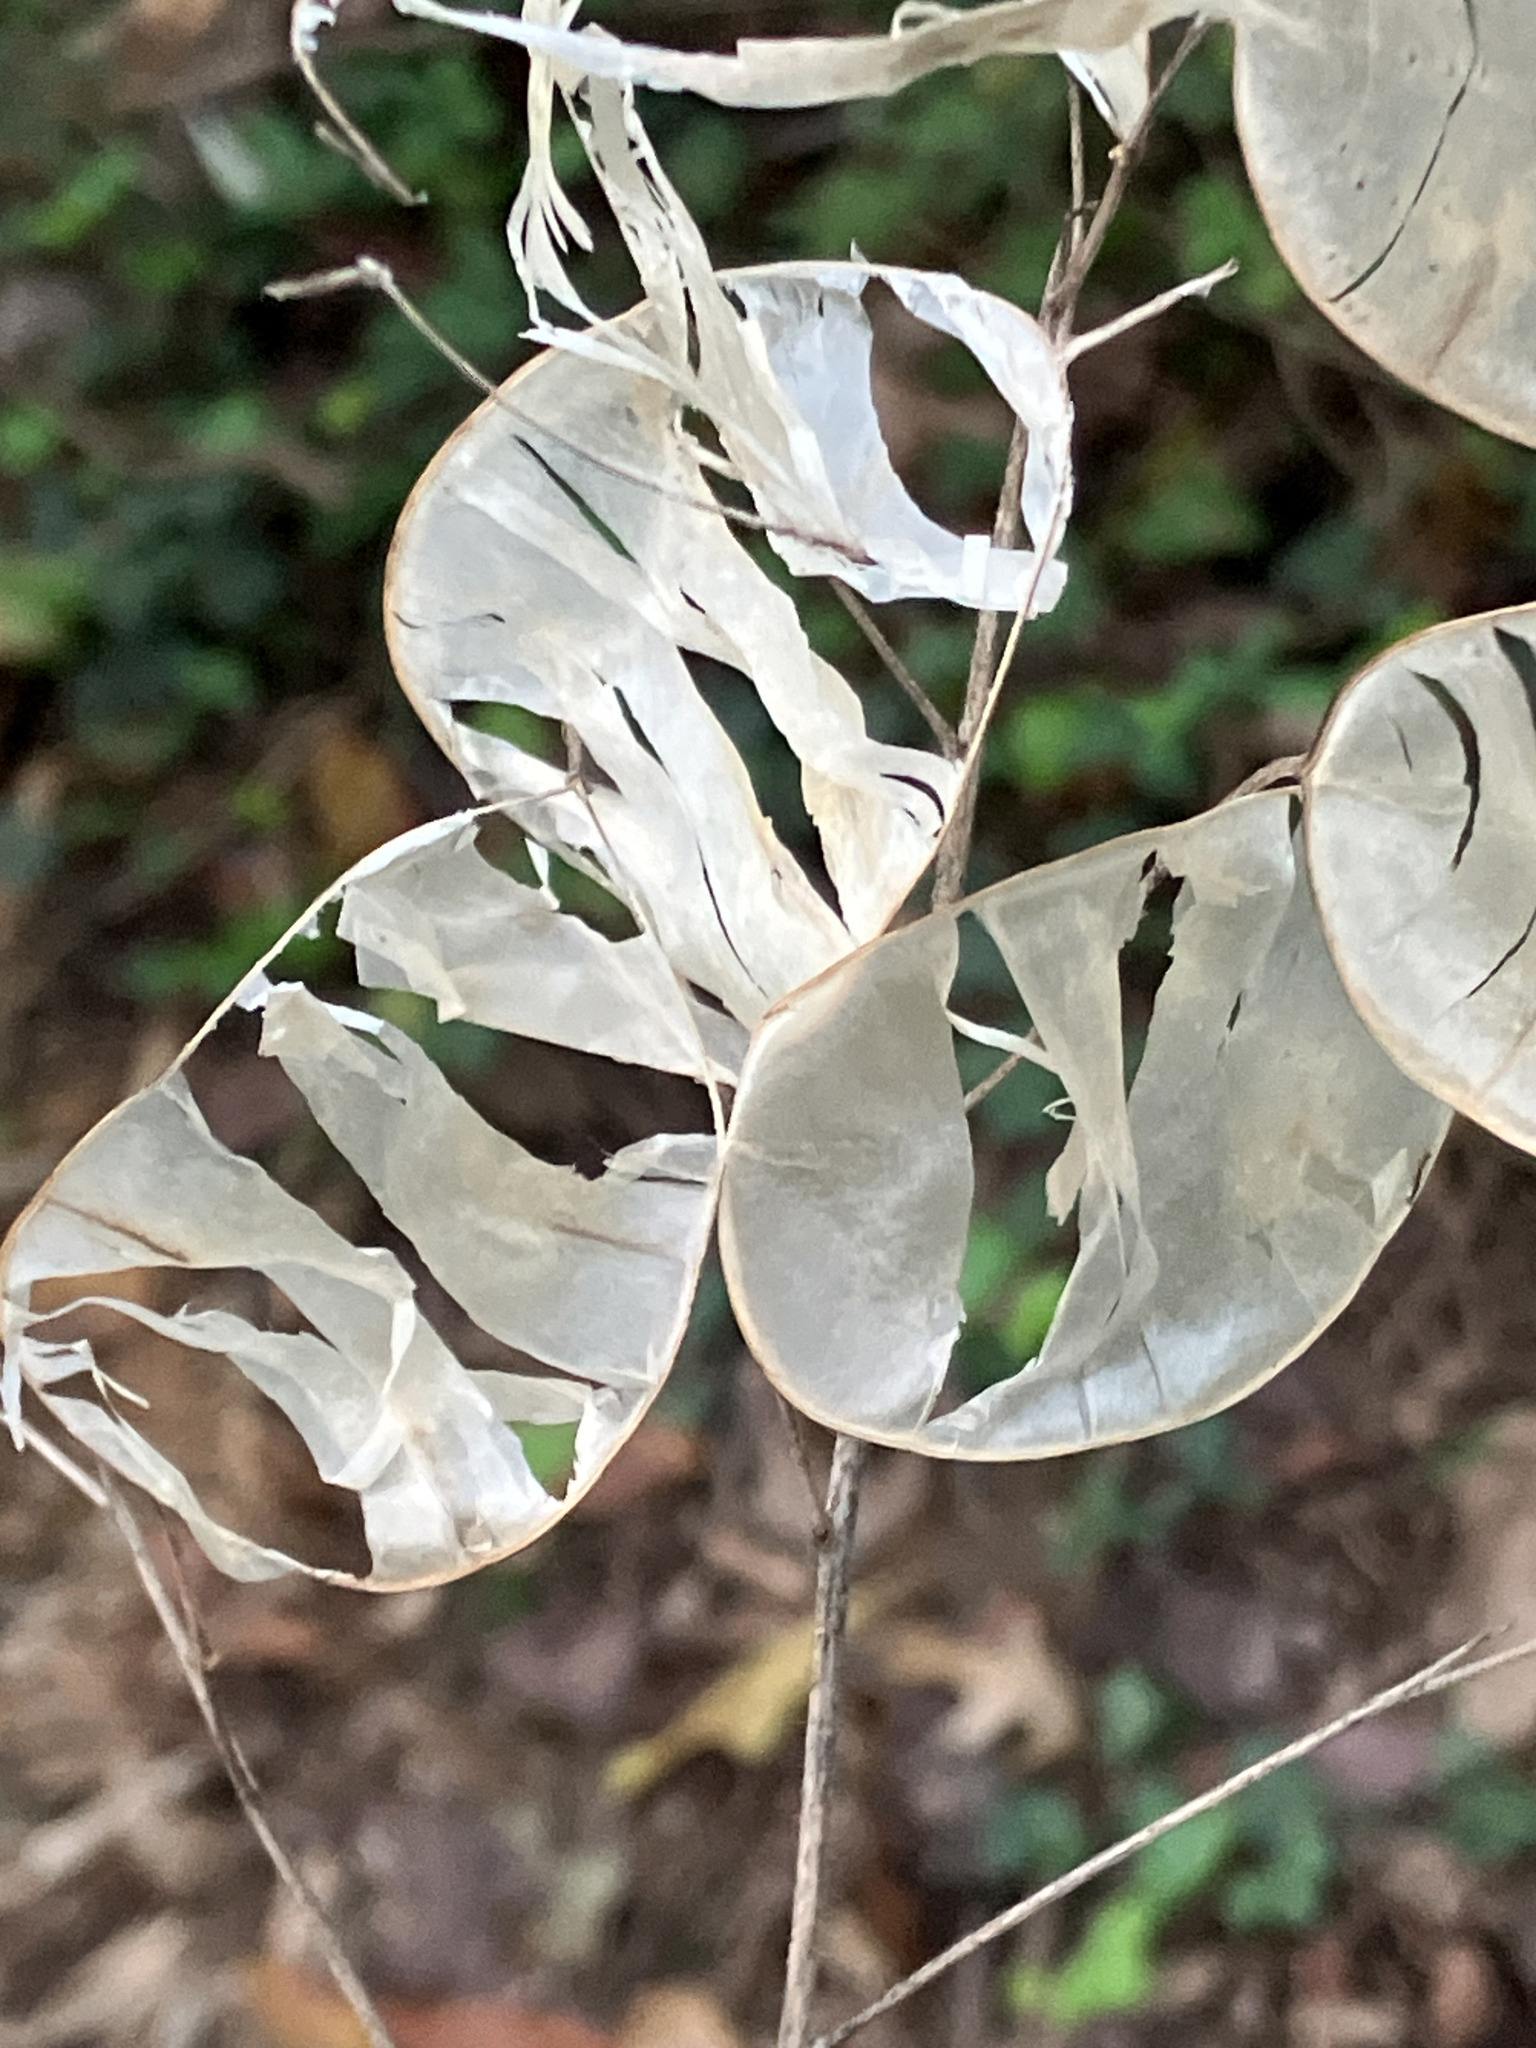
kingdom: Plantae
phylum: Tracheophyta
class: Magnoliopsida
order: Brassicales
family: Brassicaceae
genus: Lunaria
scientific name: Lunaria annua
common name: Honesty
